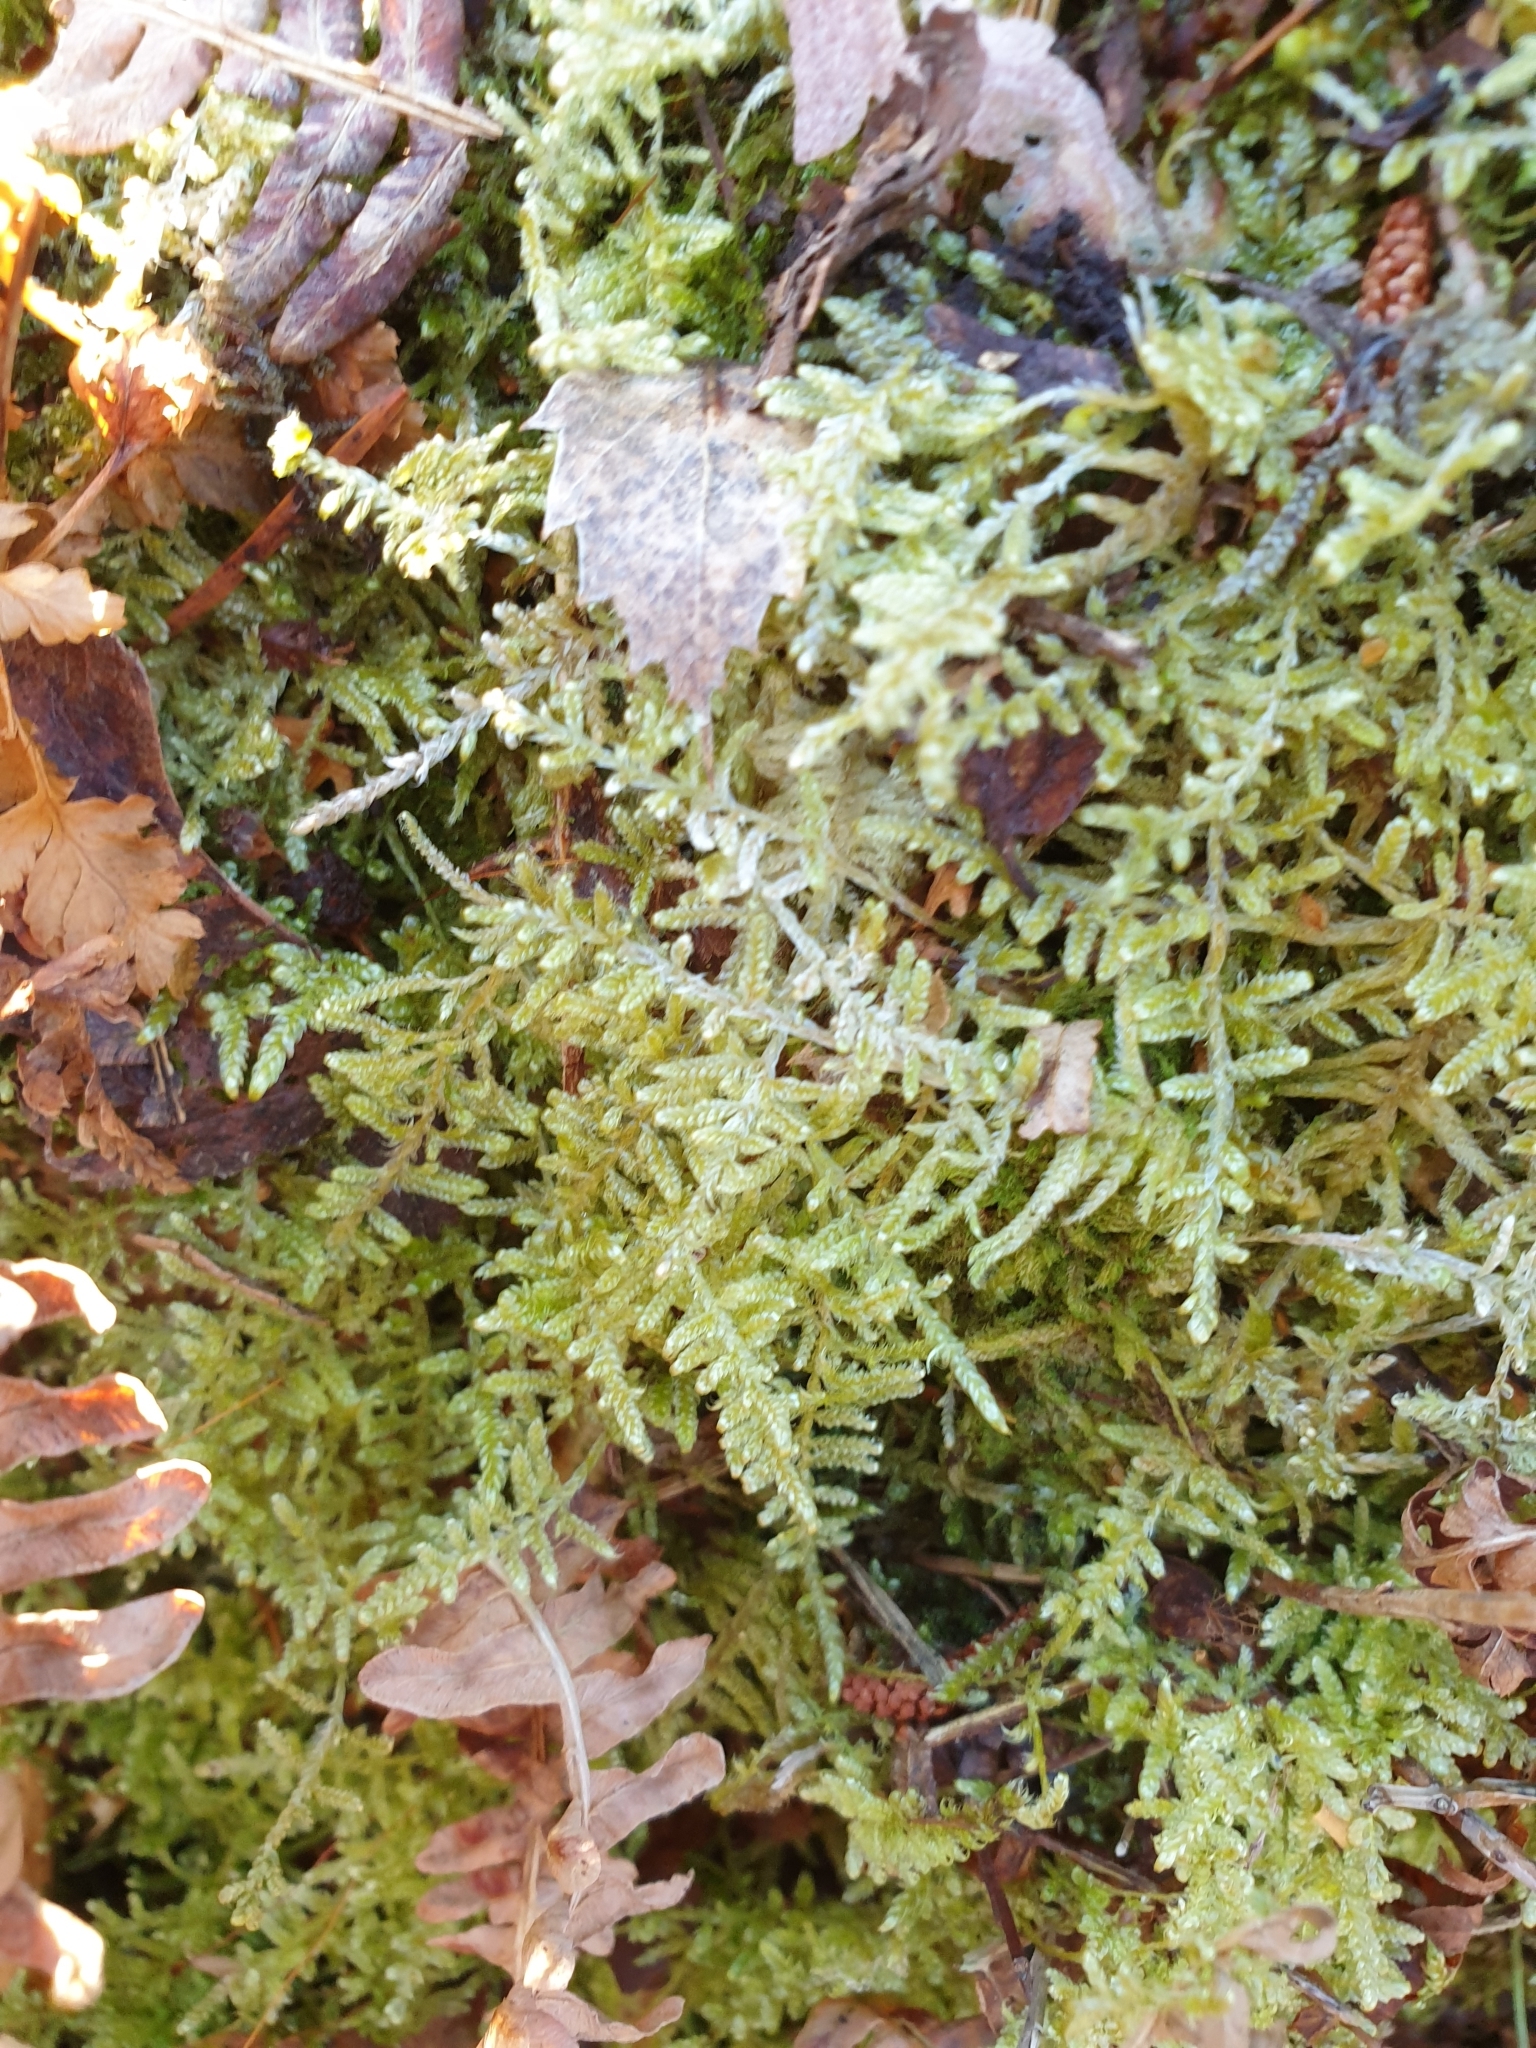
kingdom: Plantae
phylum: Bryophyta
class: Bryopsida
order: Hypnales
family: Hypnaceae
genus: Hypnum
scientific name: Hypnum jutlandicum
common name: Heath plait-moss
